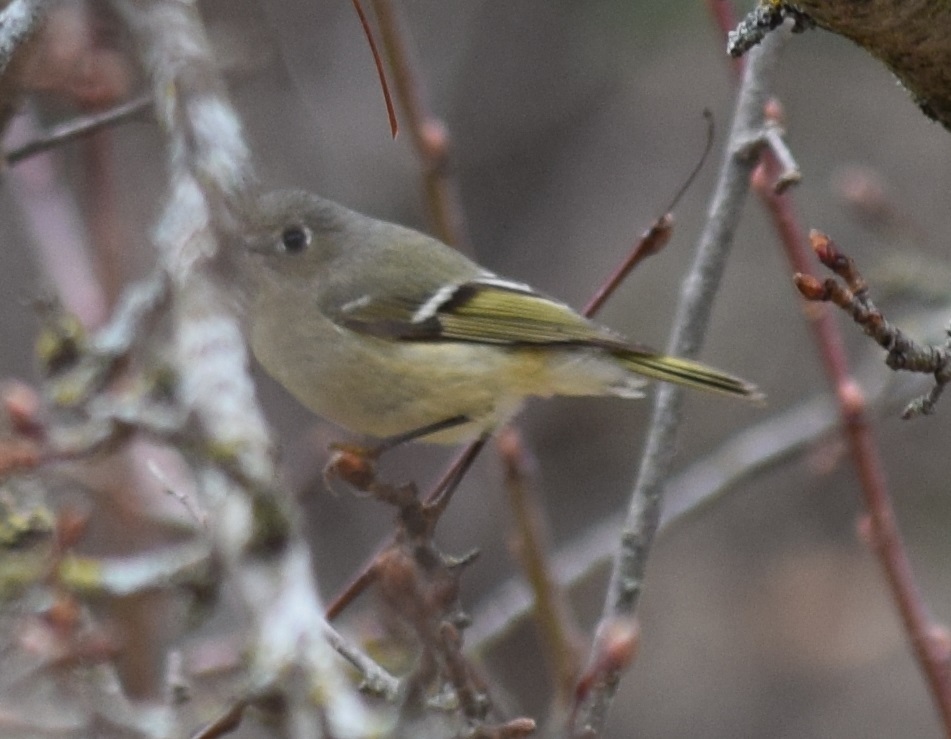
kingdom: Animalia
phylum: Chordata
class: Aves
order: Passeriformes
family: Regulidae
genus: Regulus
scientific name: Regulus calendula
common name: Ruby-crowned kinglet
